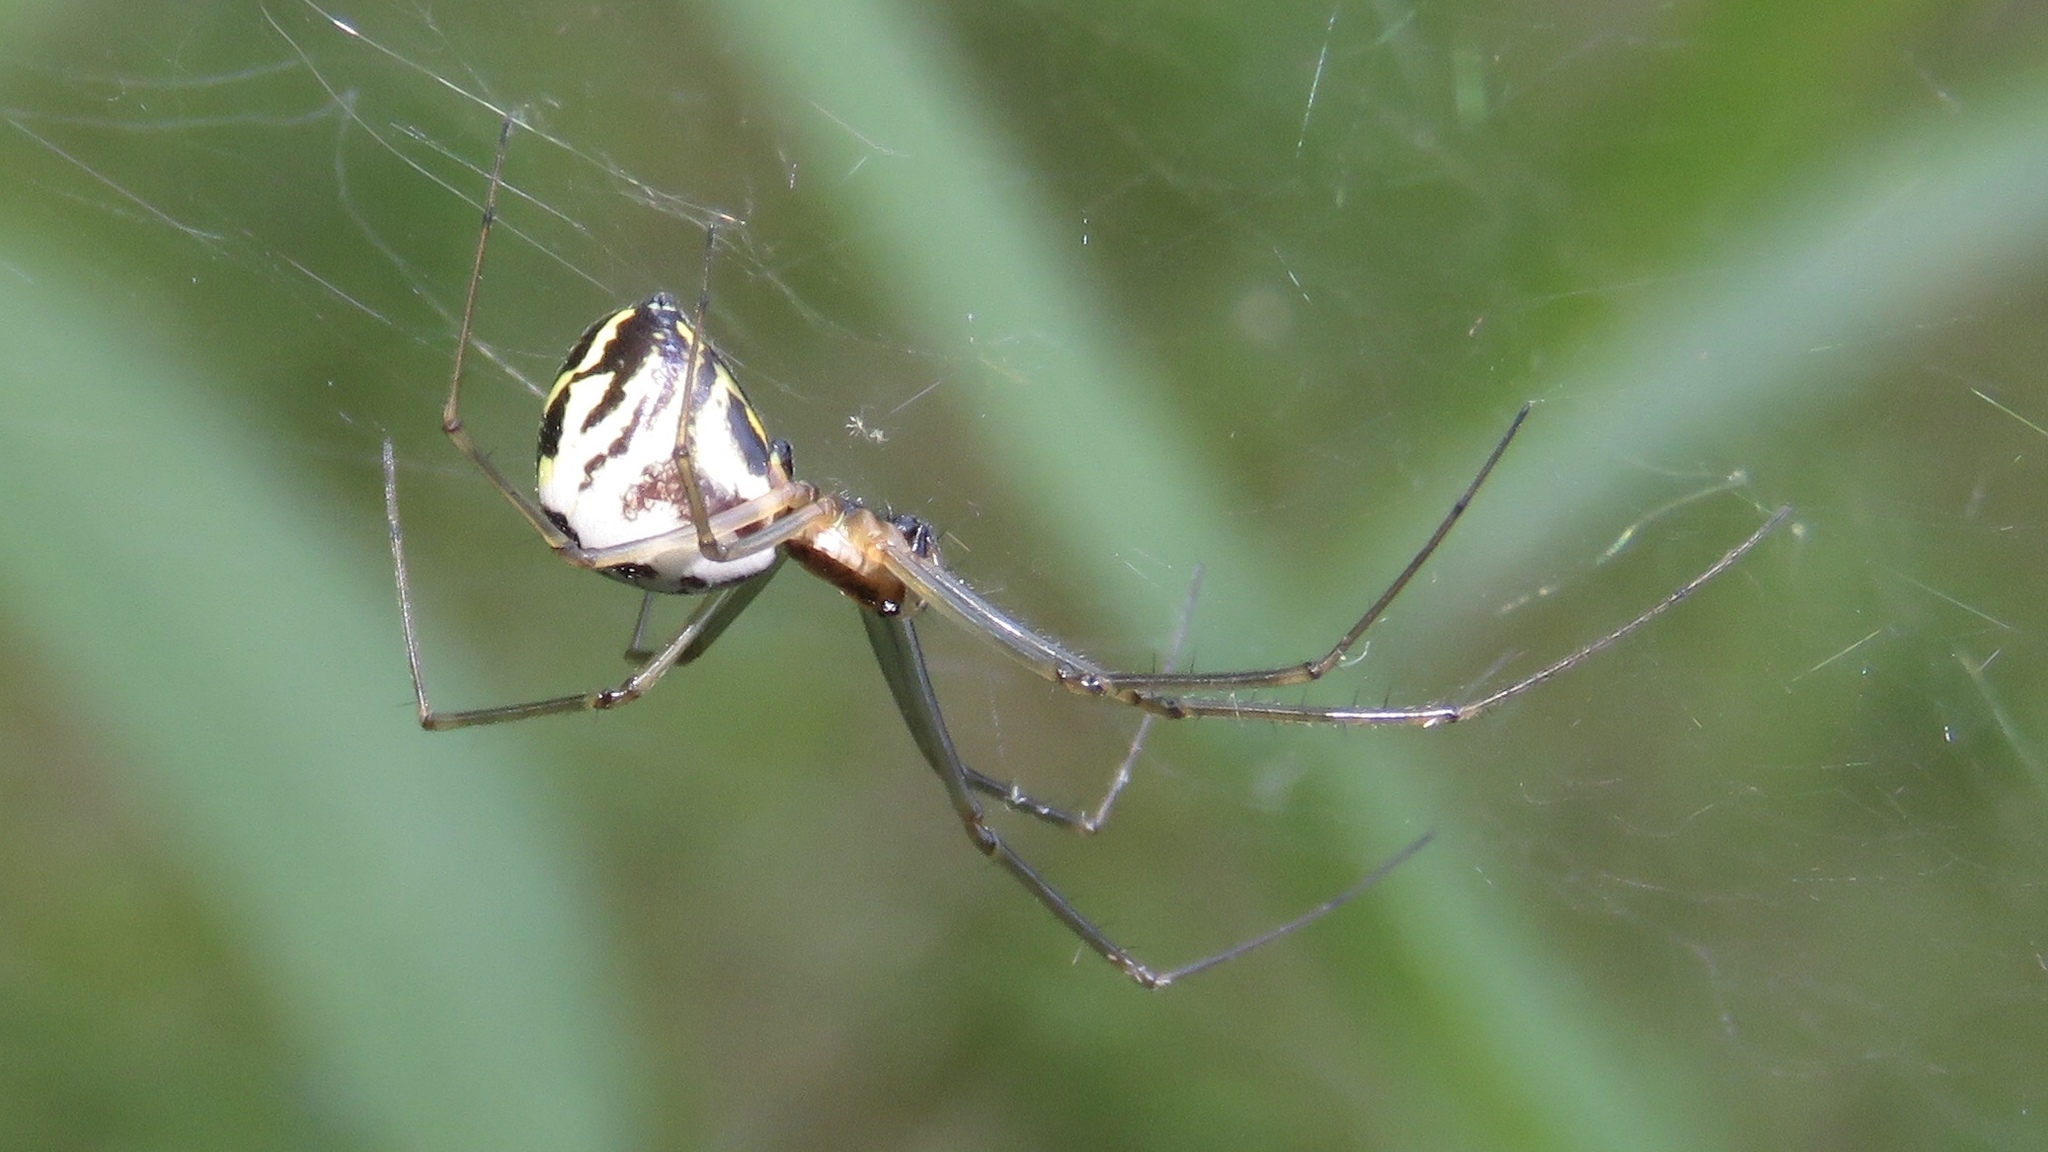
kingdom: Animalia
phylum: Arthropoda
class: Arachnida
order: Araneae
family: Linyphiidae
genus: Neriene
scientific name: Neriene radiata
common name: Filmy dome spider
